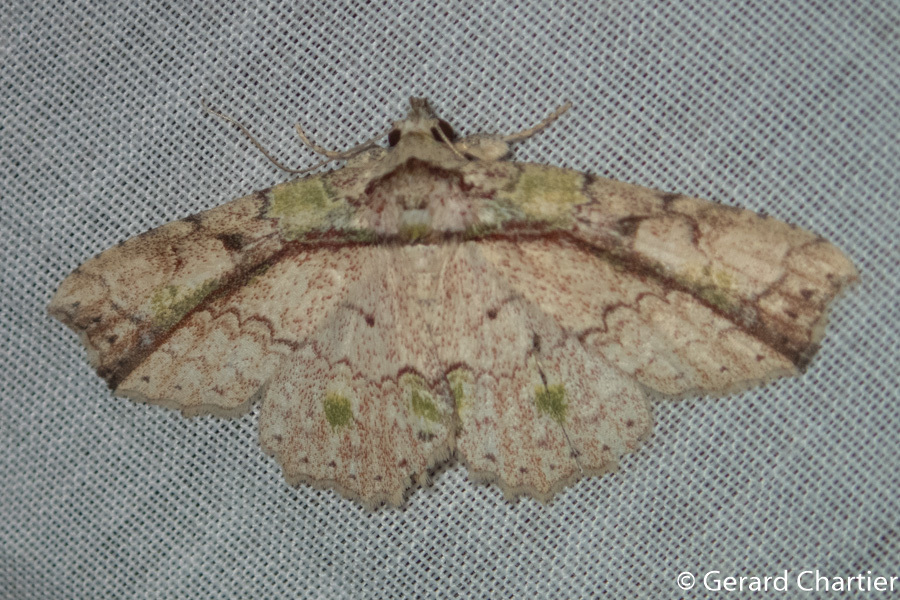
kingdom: Animalia
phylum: Arthropoda
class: Insecta
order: Lepidoptera
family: Erebidae
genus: Tamba
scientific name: Tamba mnionomera
